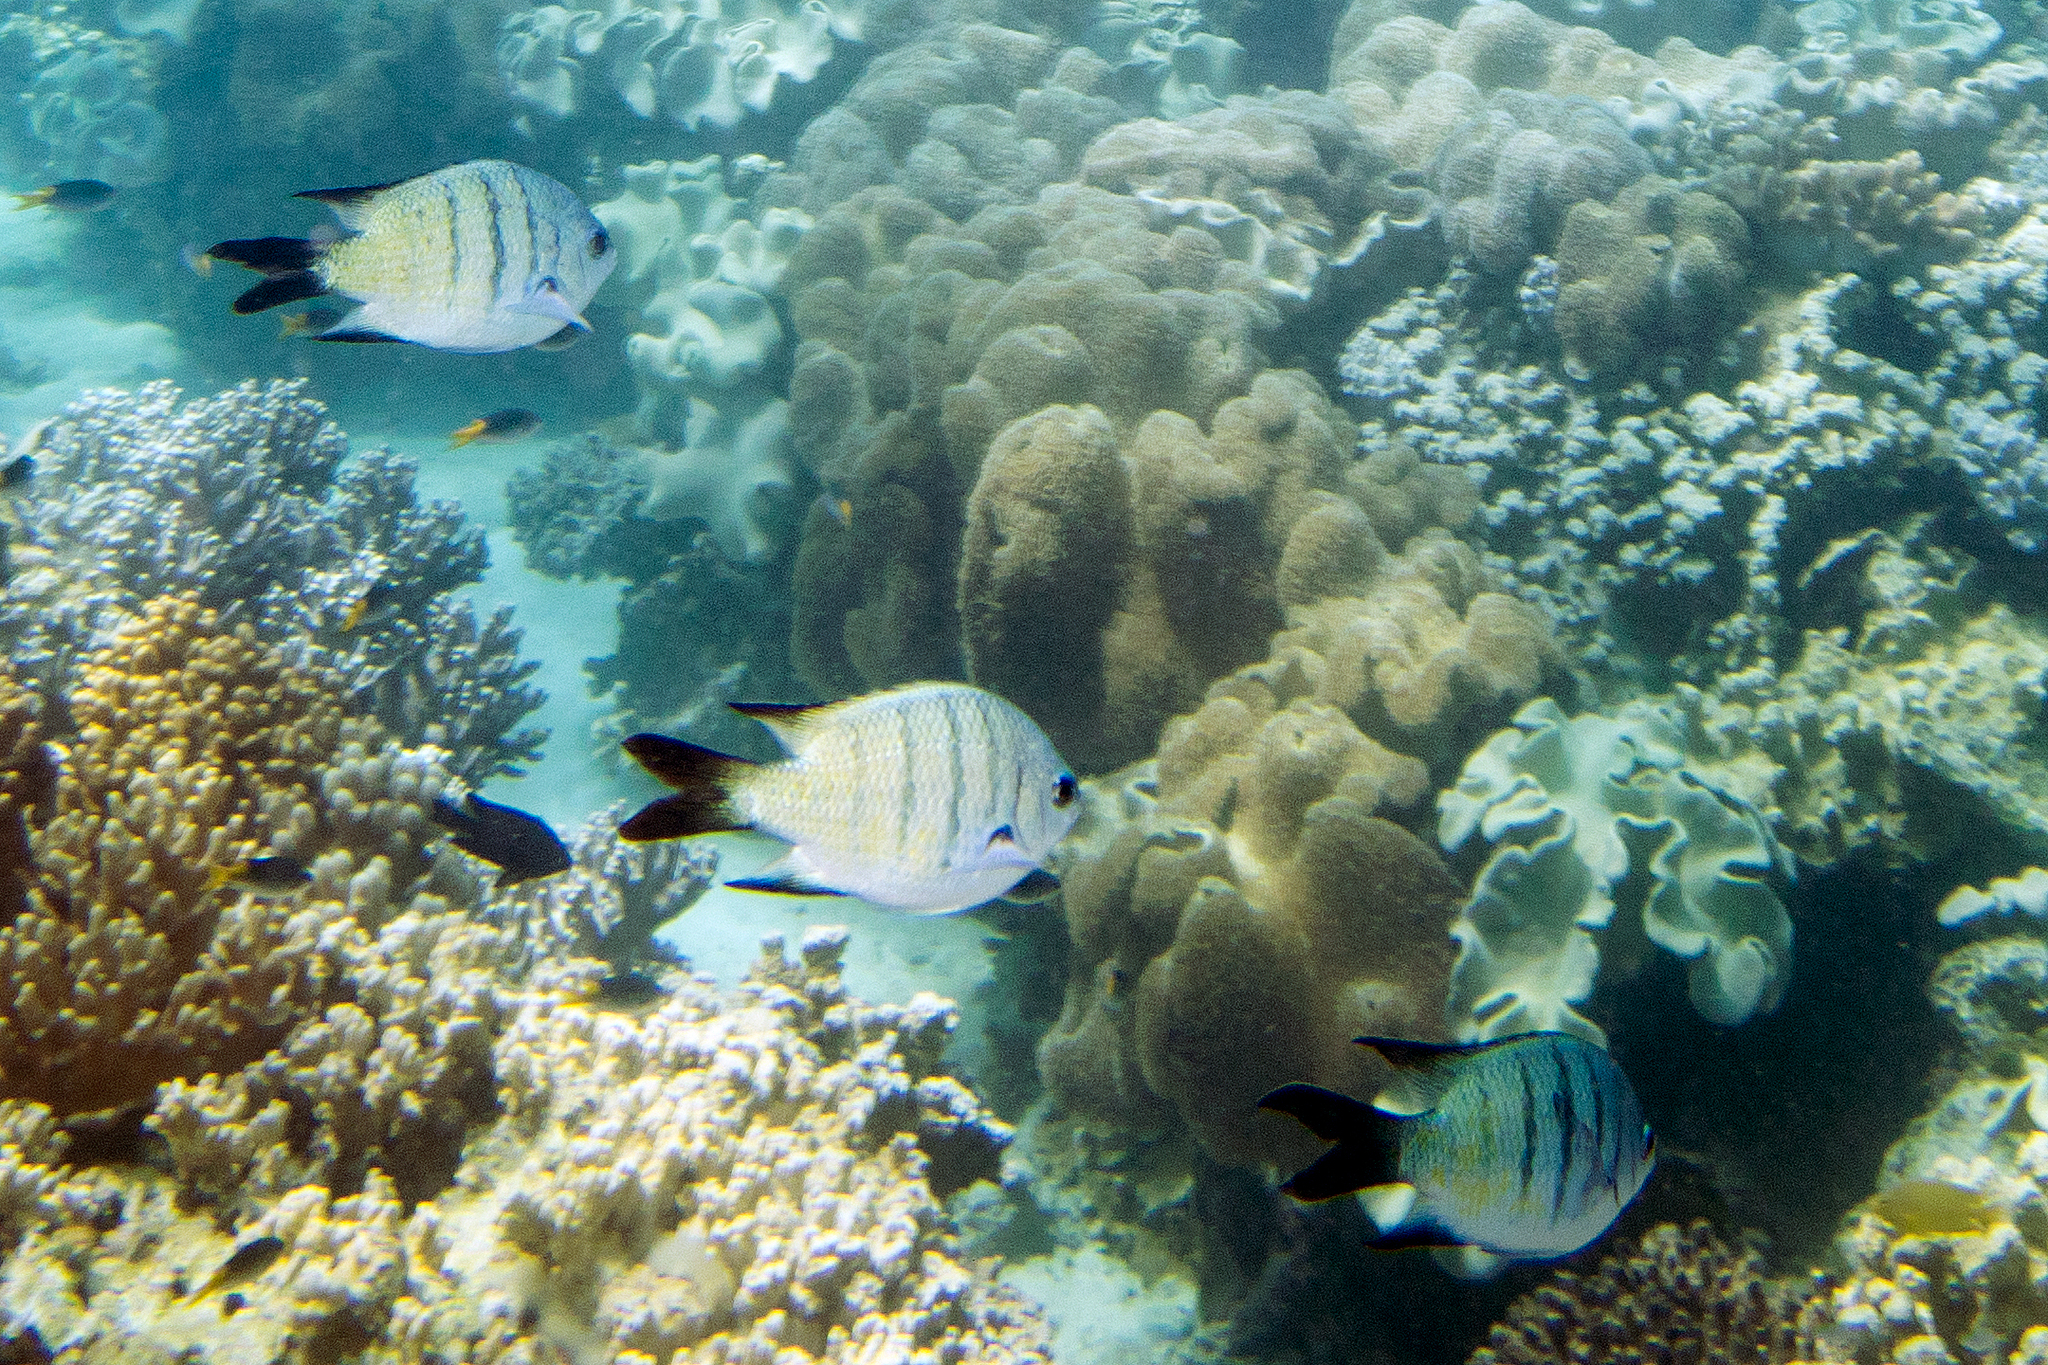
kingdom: Animalia
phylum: Chordata
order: Perciformes
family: Pomacentridae
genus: Abudefduf
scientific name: Abudefduf whitleyi
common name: Whitley's seargent
